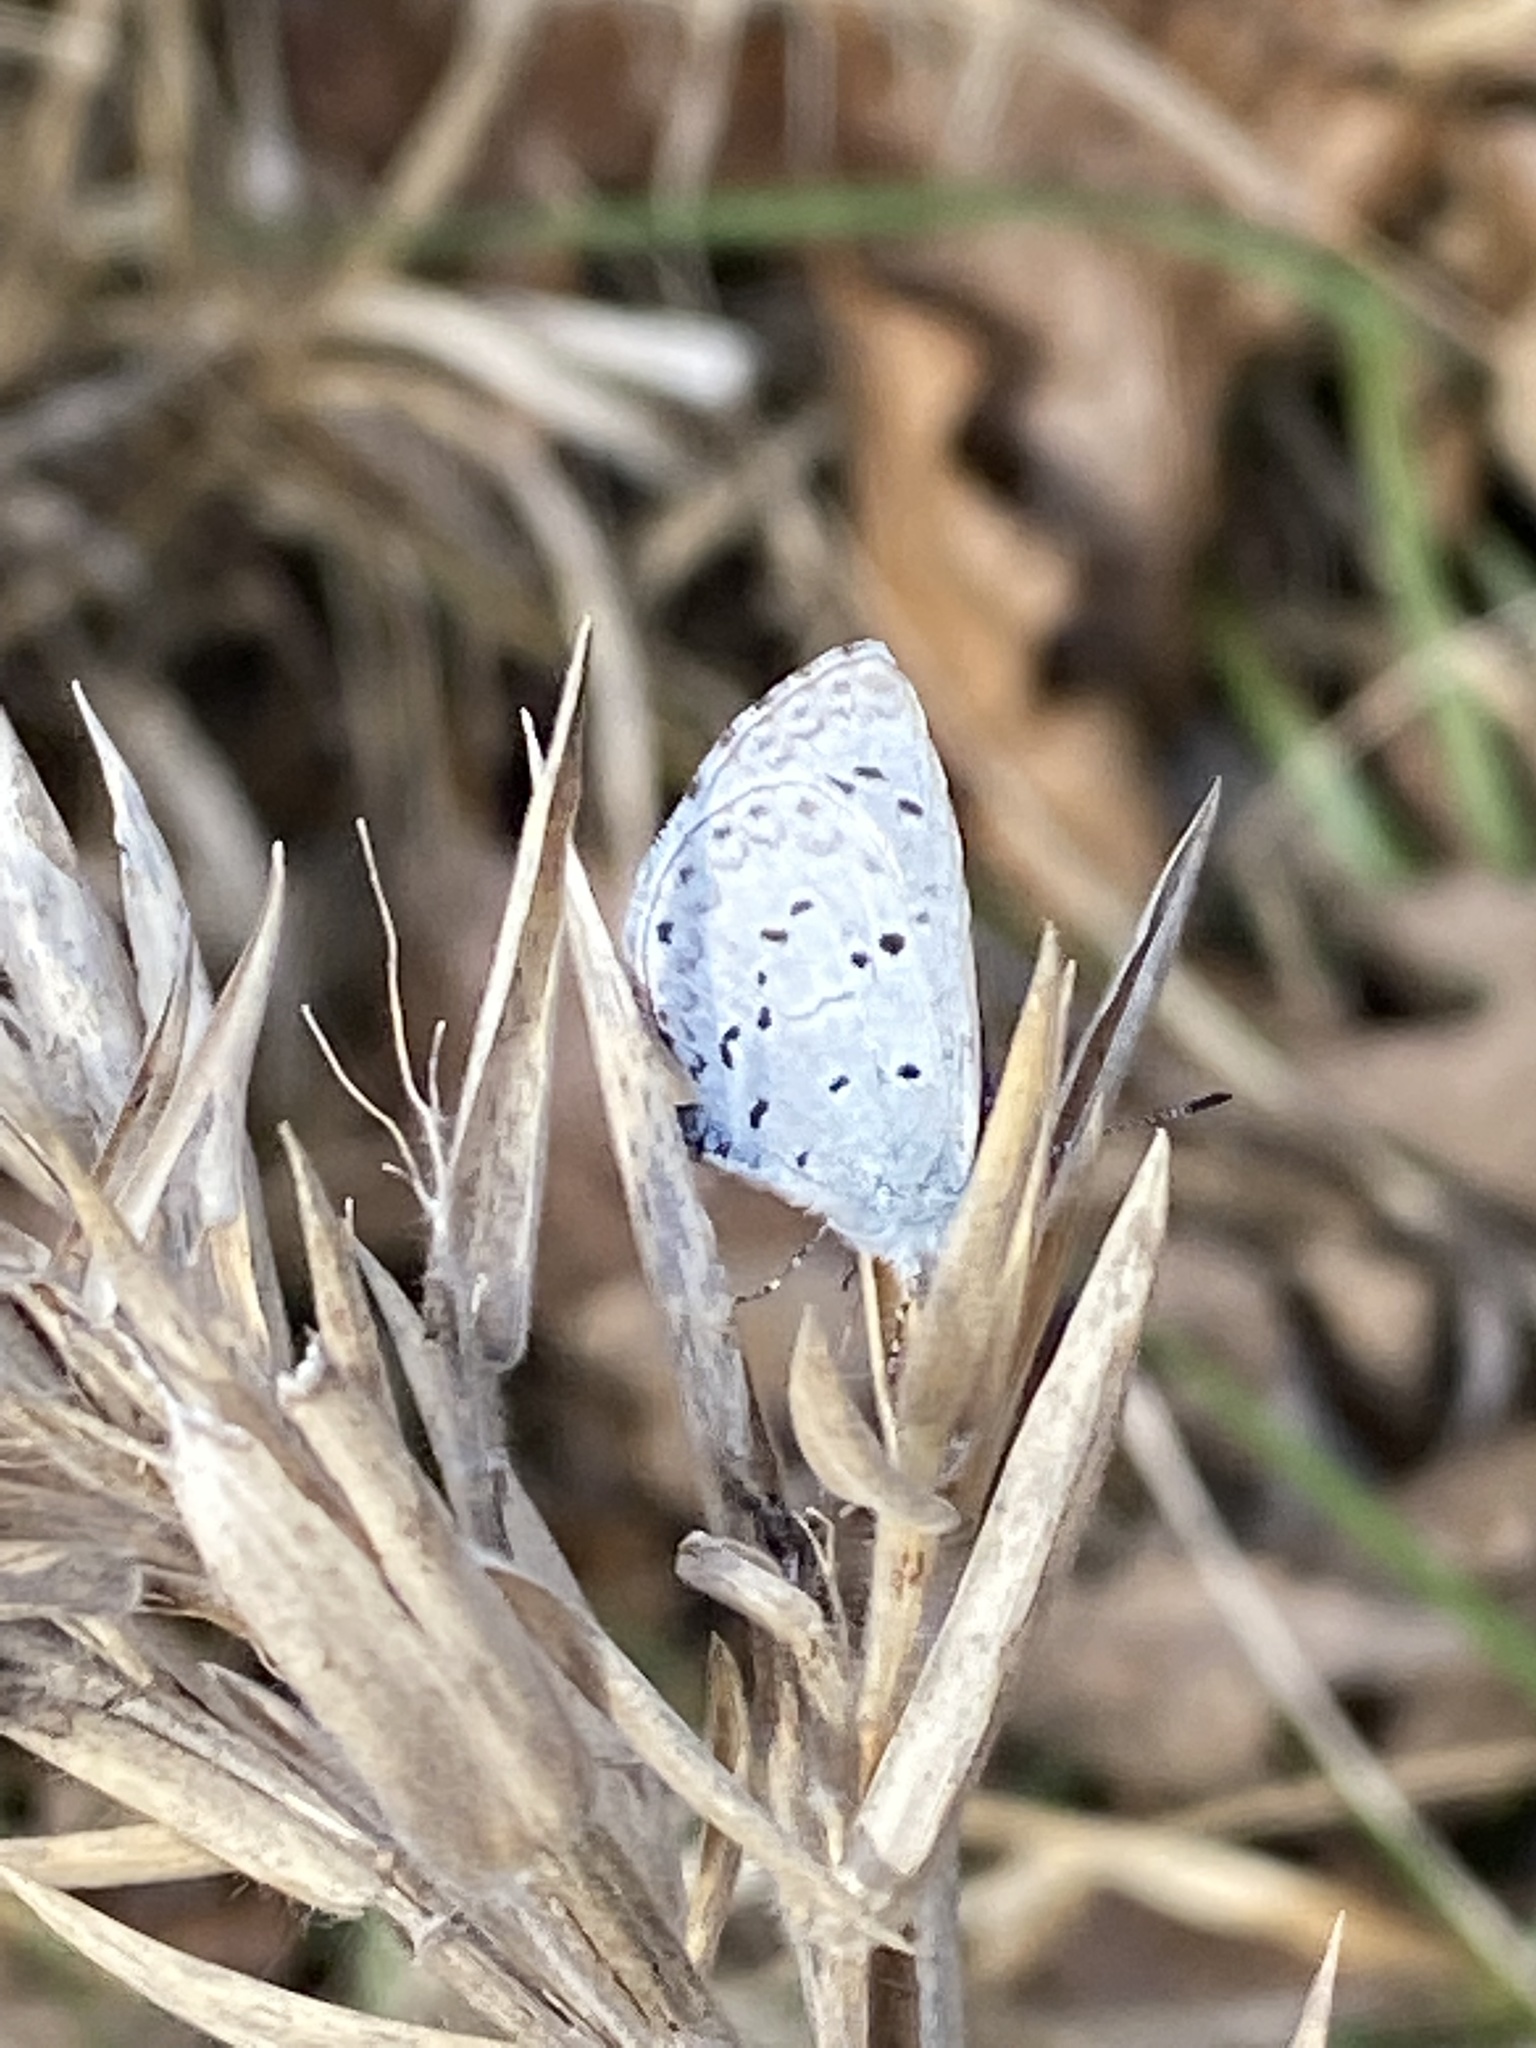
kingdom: Animalia
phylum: Arthropoda
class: Insecta
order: Lepidoptera
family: Lycaenidae
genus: Cyaniris
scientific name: Cyaniris neglecta
